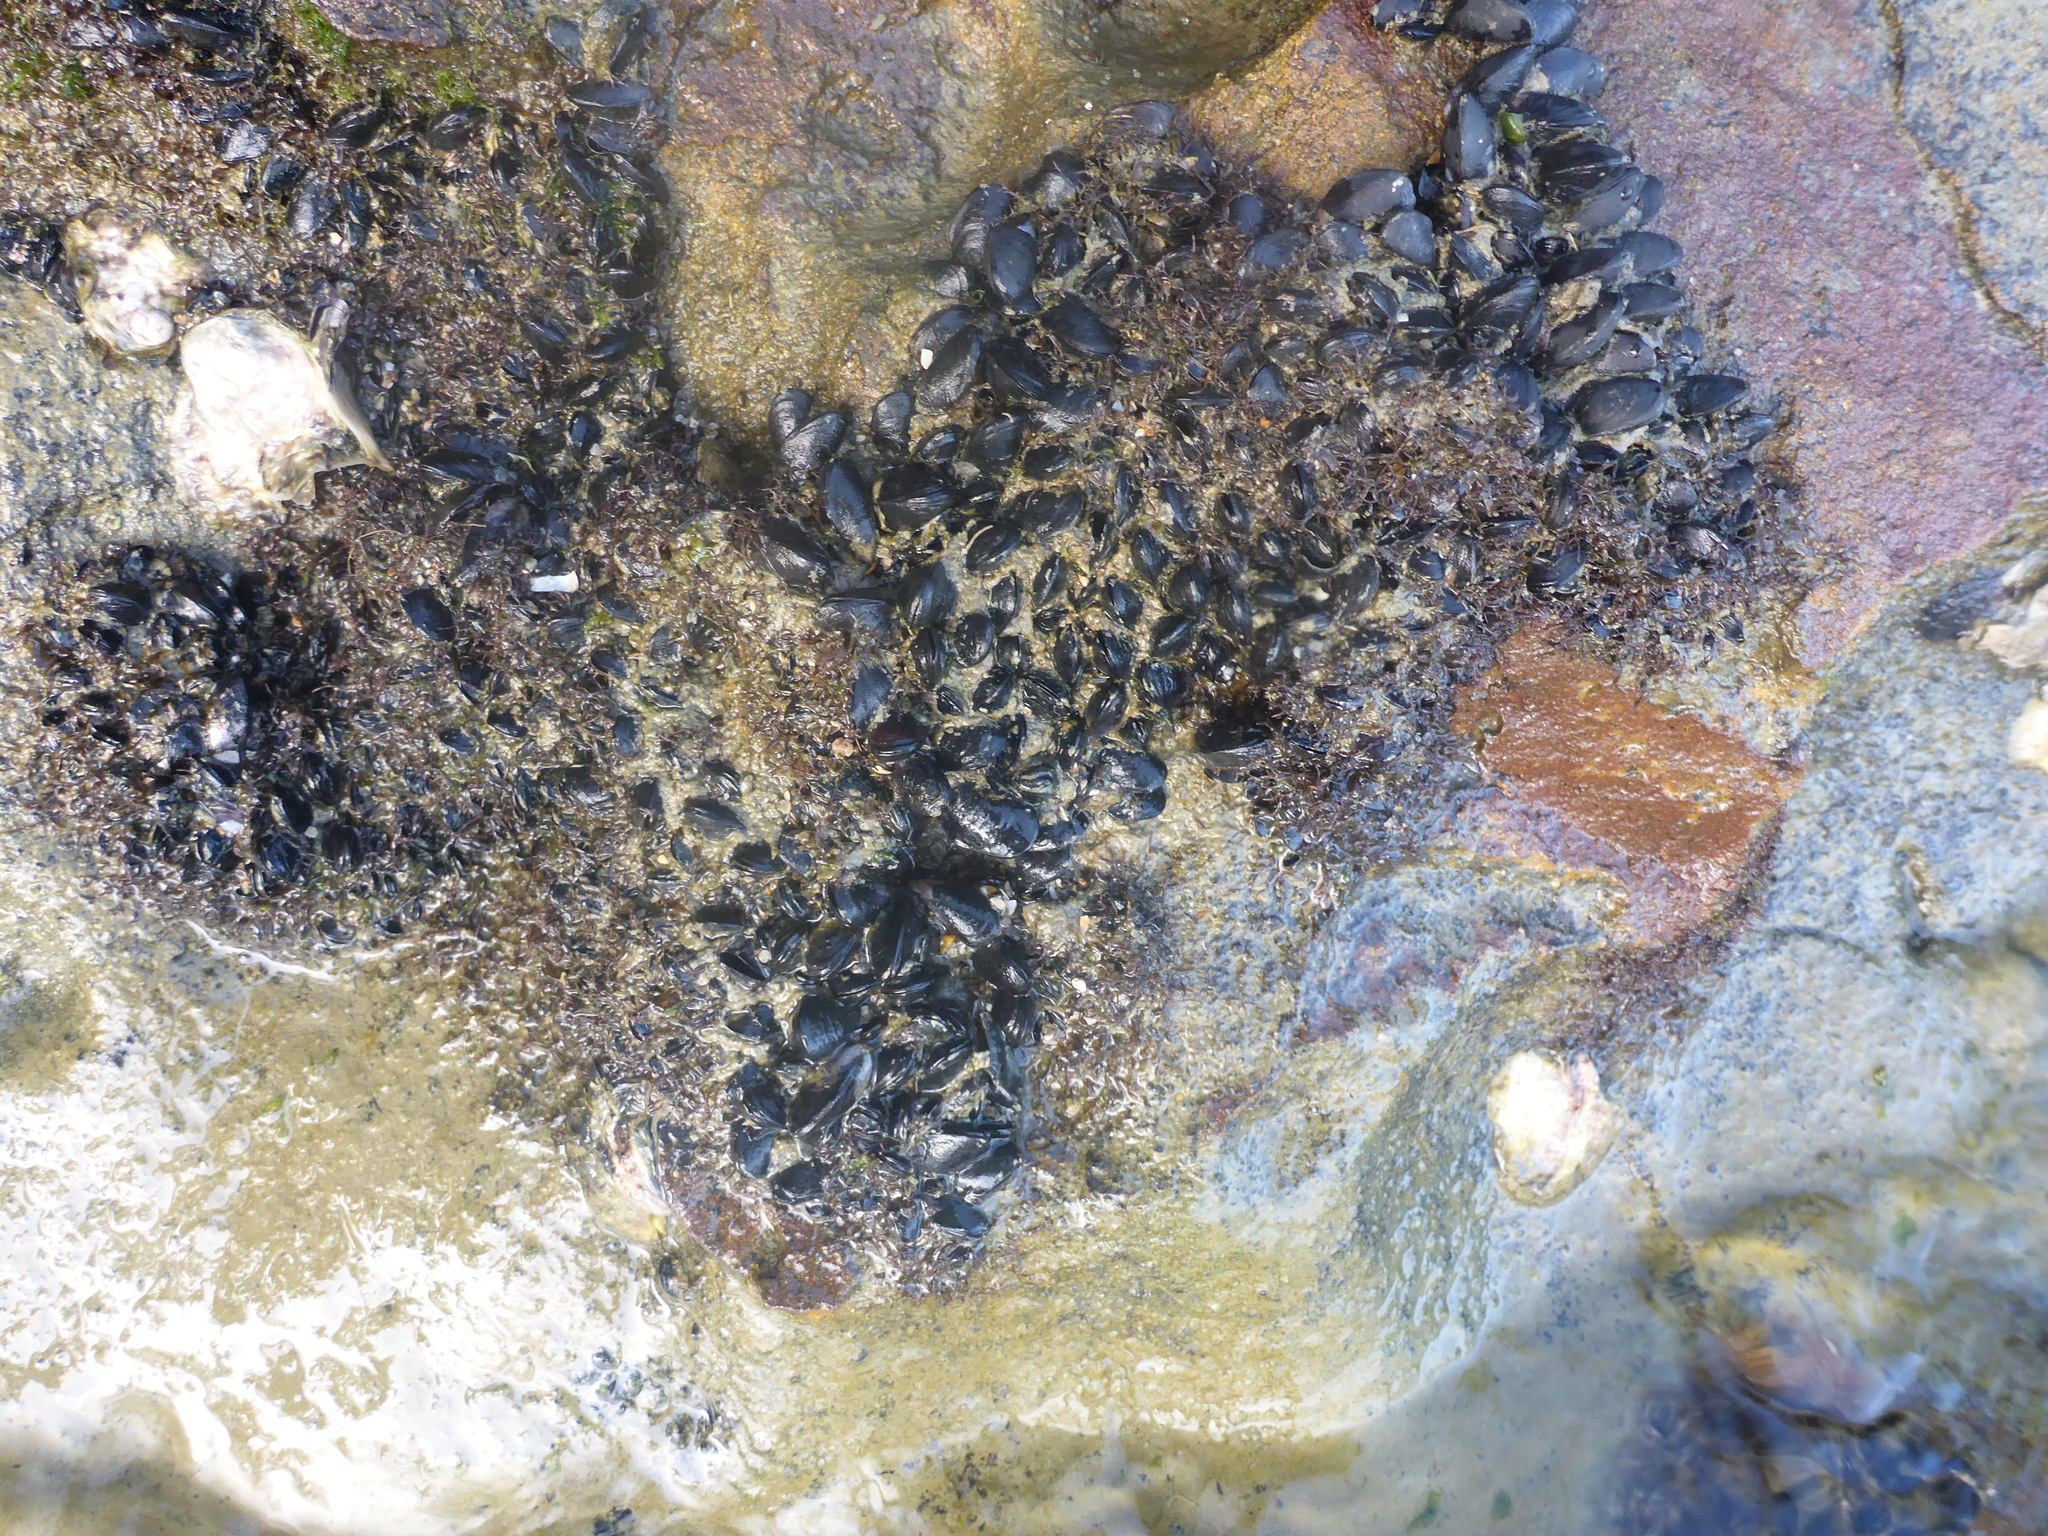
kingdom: Animalia
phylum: Mollusca
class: Bivalvia
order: Mytilida
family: Mytilidae
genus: Xenostrobus
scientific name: Xenostrobus neozelanicus
